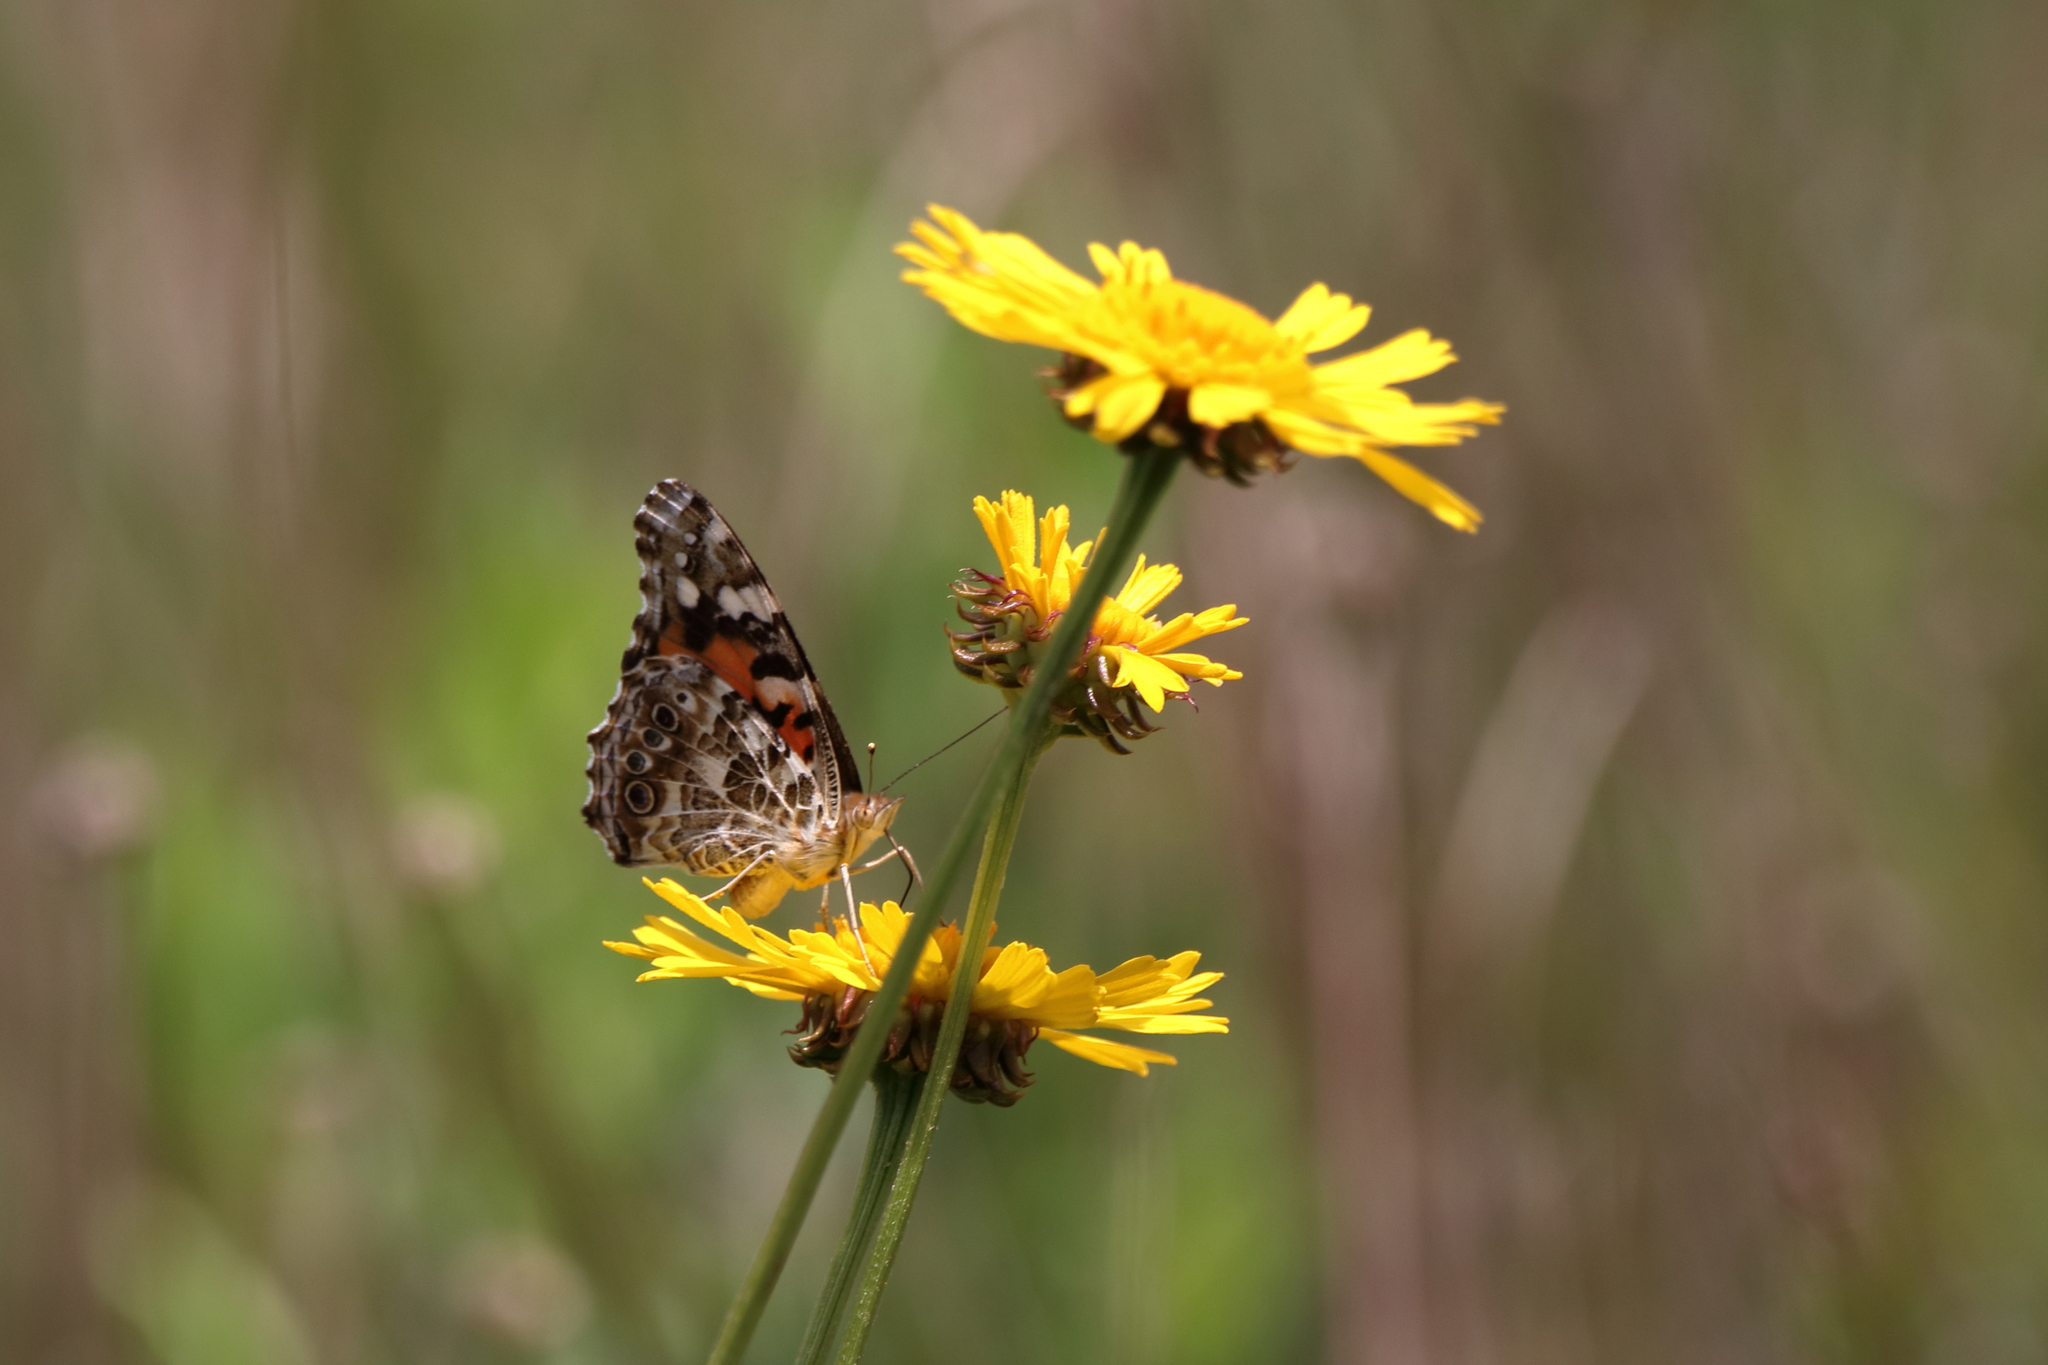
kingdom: Animalia
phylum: Arthropoda
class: Insecta
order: Lepidoptera
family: Nymphalidae
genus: Vanessa
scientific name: Vanessa cardui
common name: Painted lady
